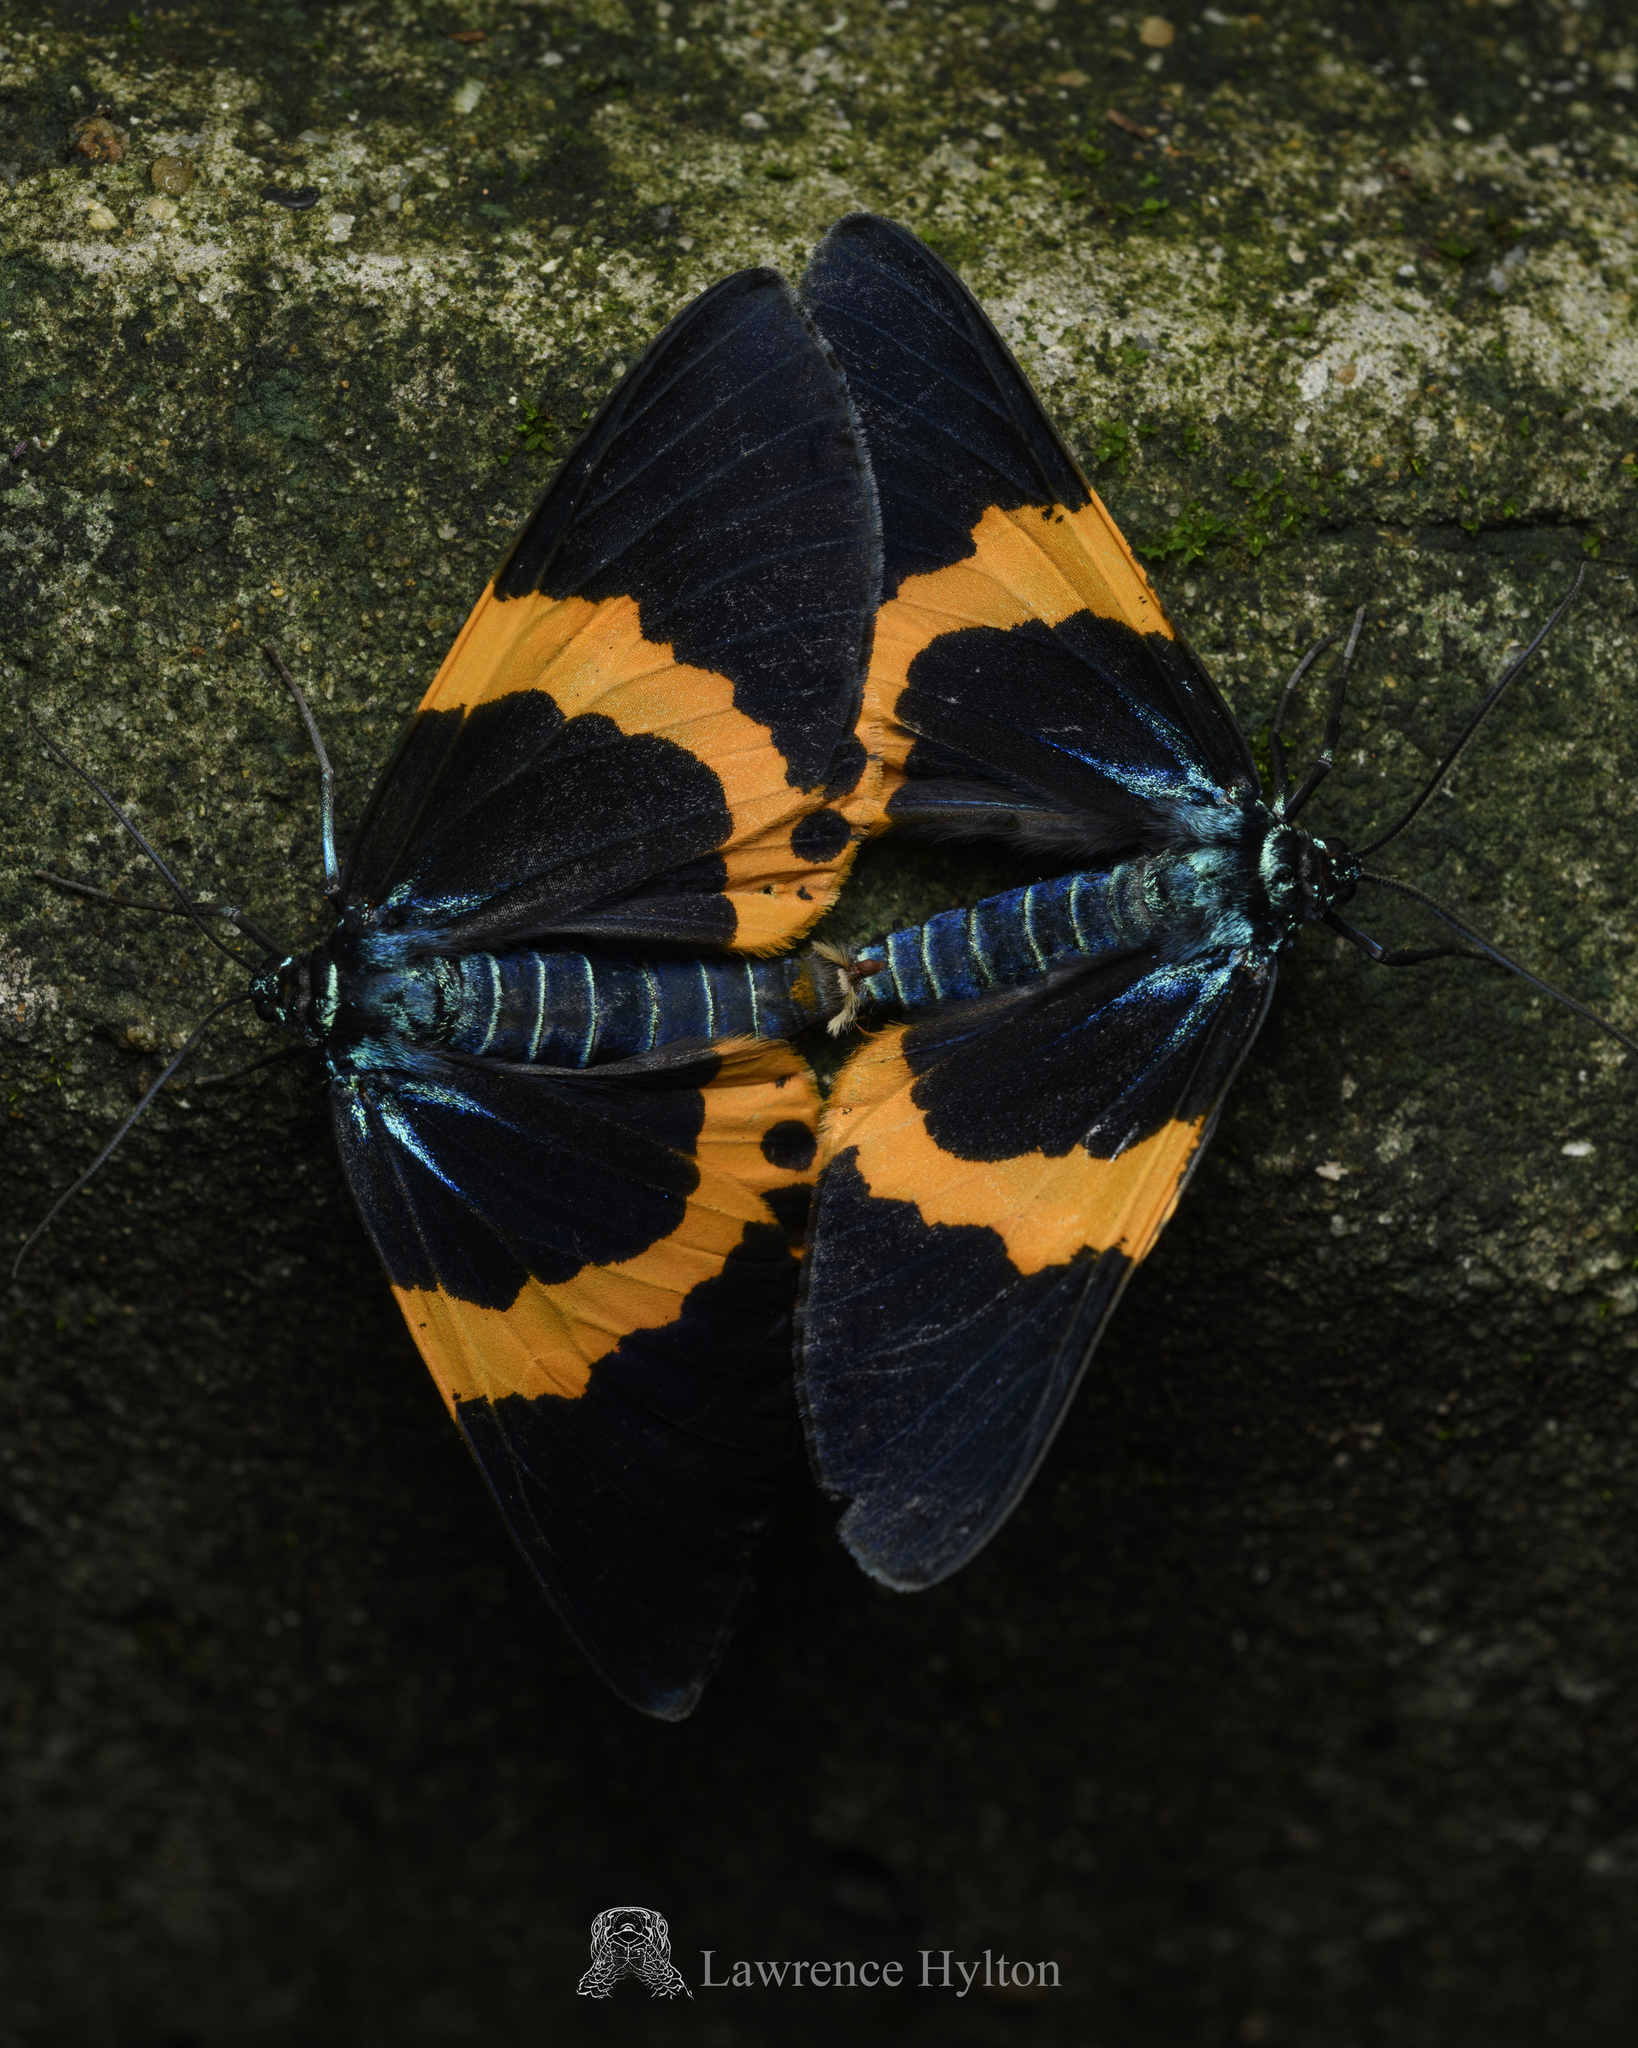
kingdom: Animalia
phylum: Arthropoda
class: Insecta
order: Lepidoptera
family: Geometridae
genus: Milionia
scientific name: Milionia basalis
